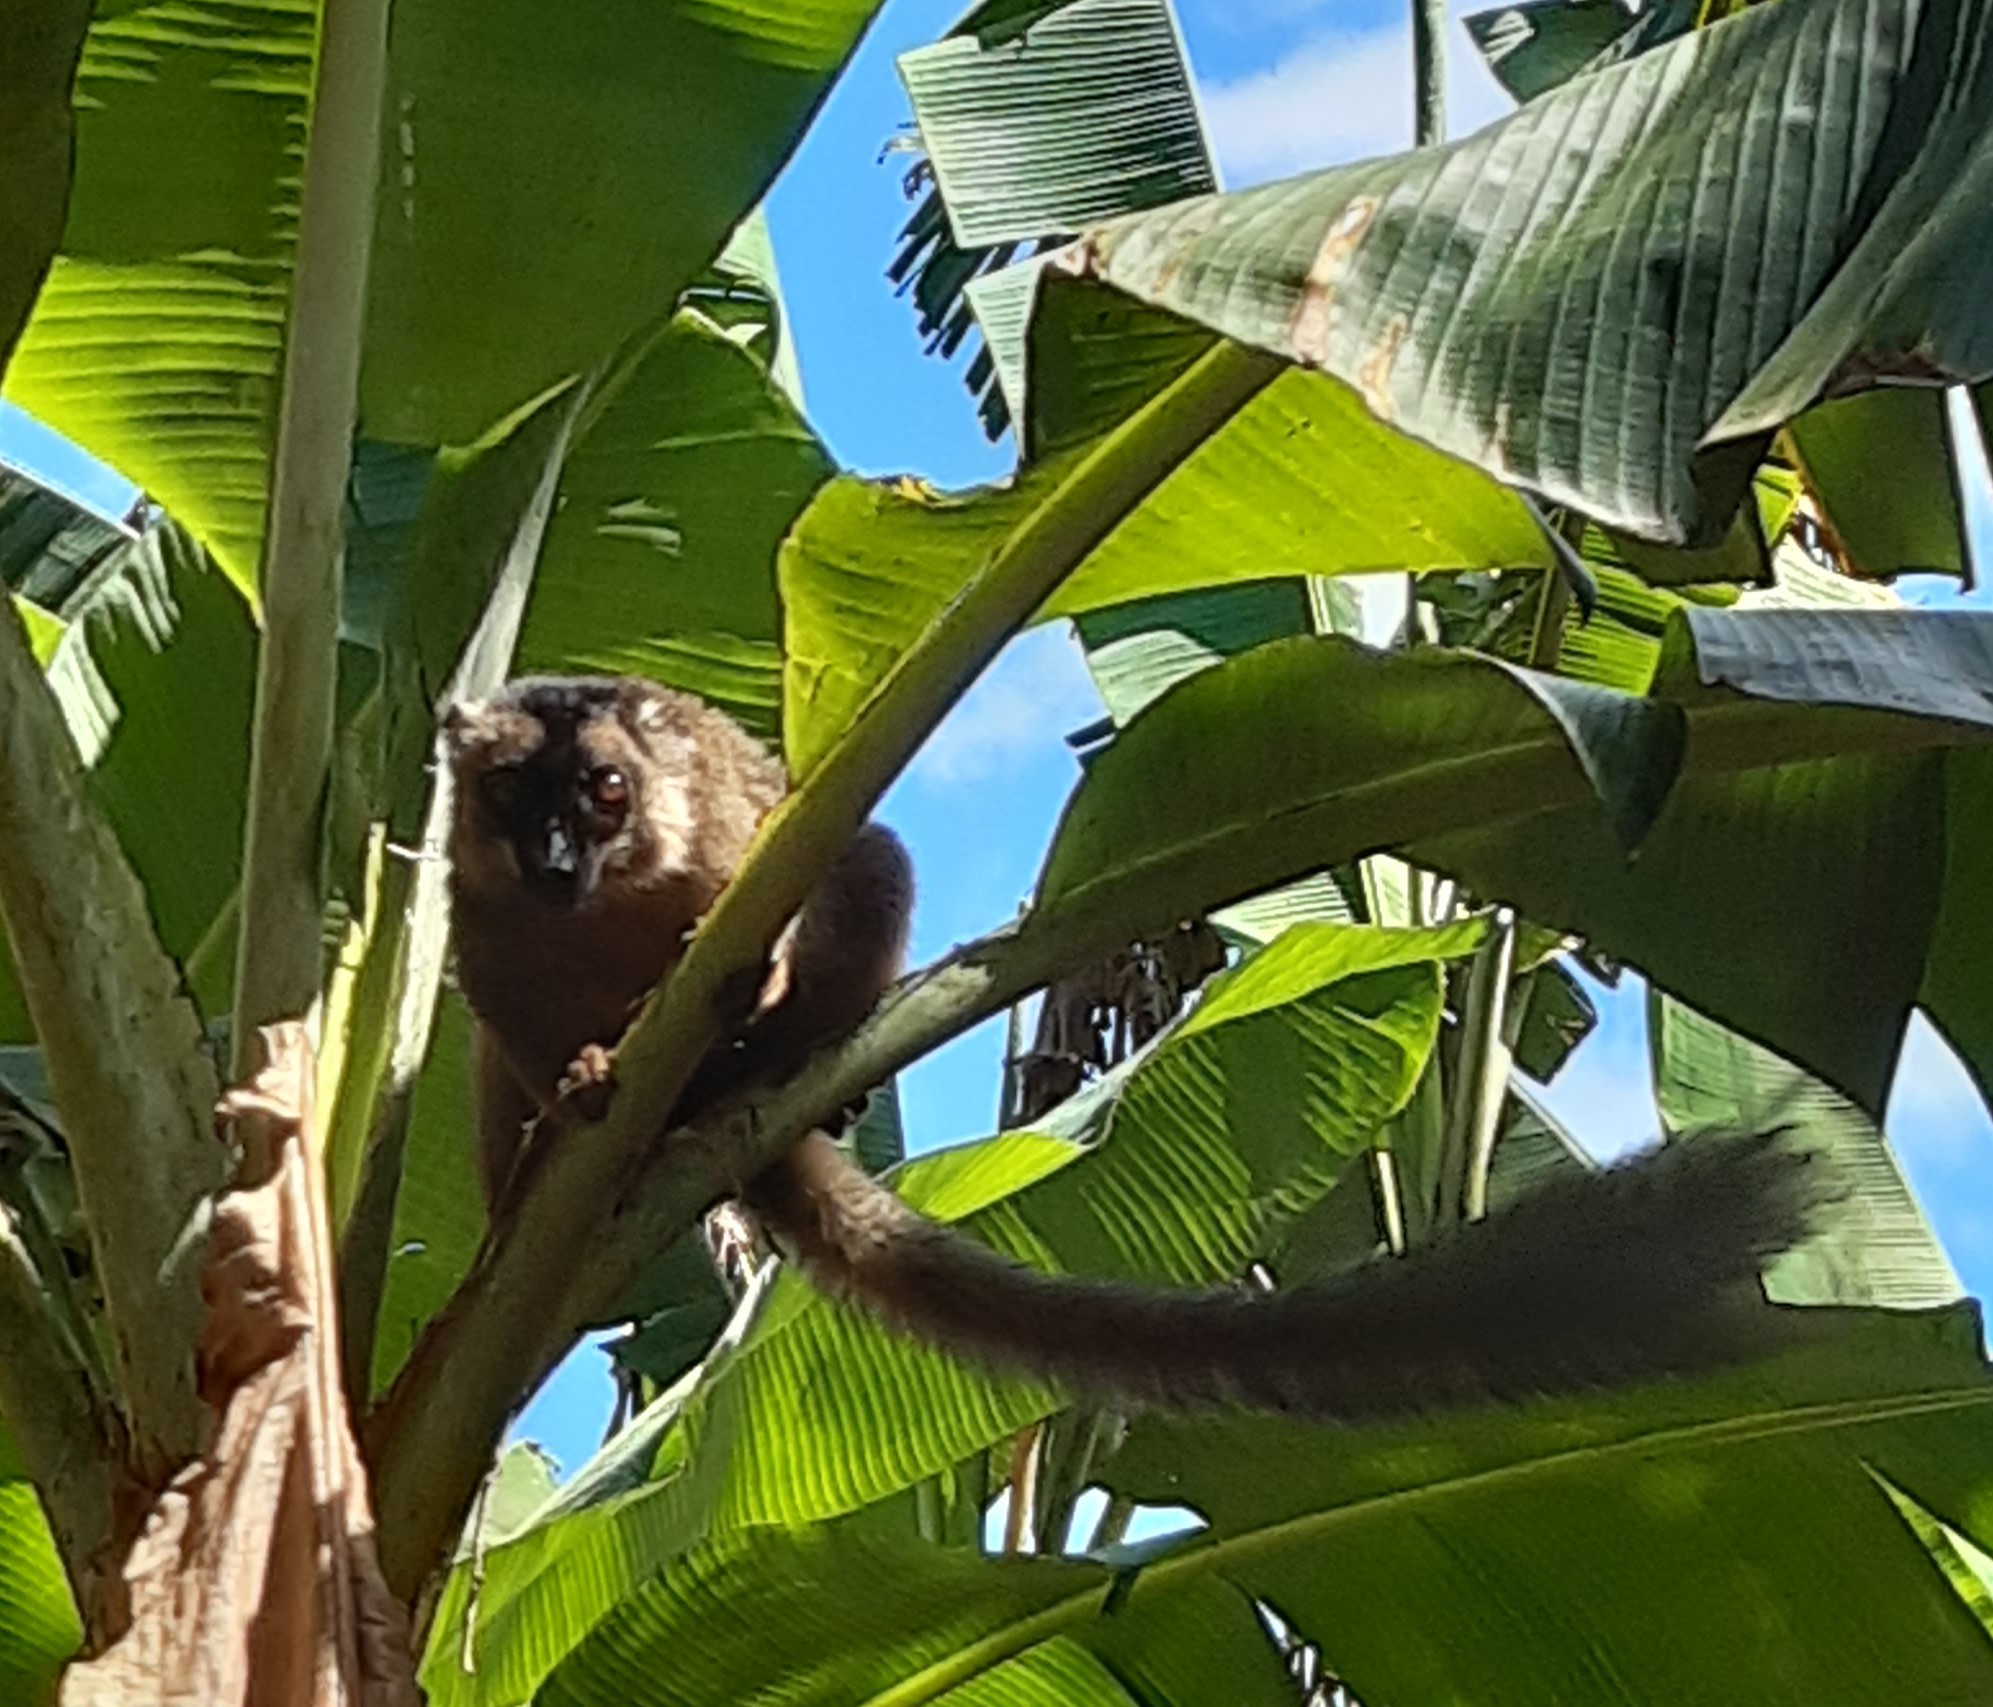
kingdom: Animalia
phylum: Chordata
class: Mammalia
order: Primates
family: Lemuridae
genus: Eulemur
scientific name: Eulemur fulvus
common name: Brown lemur
